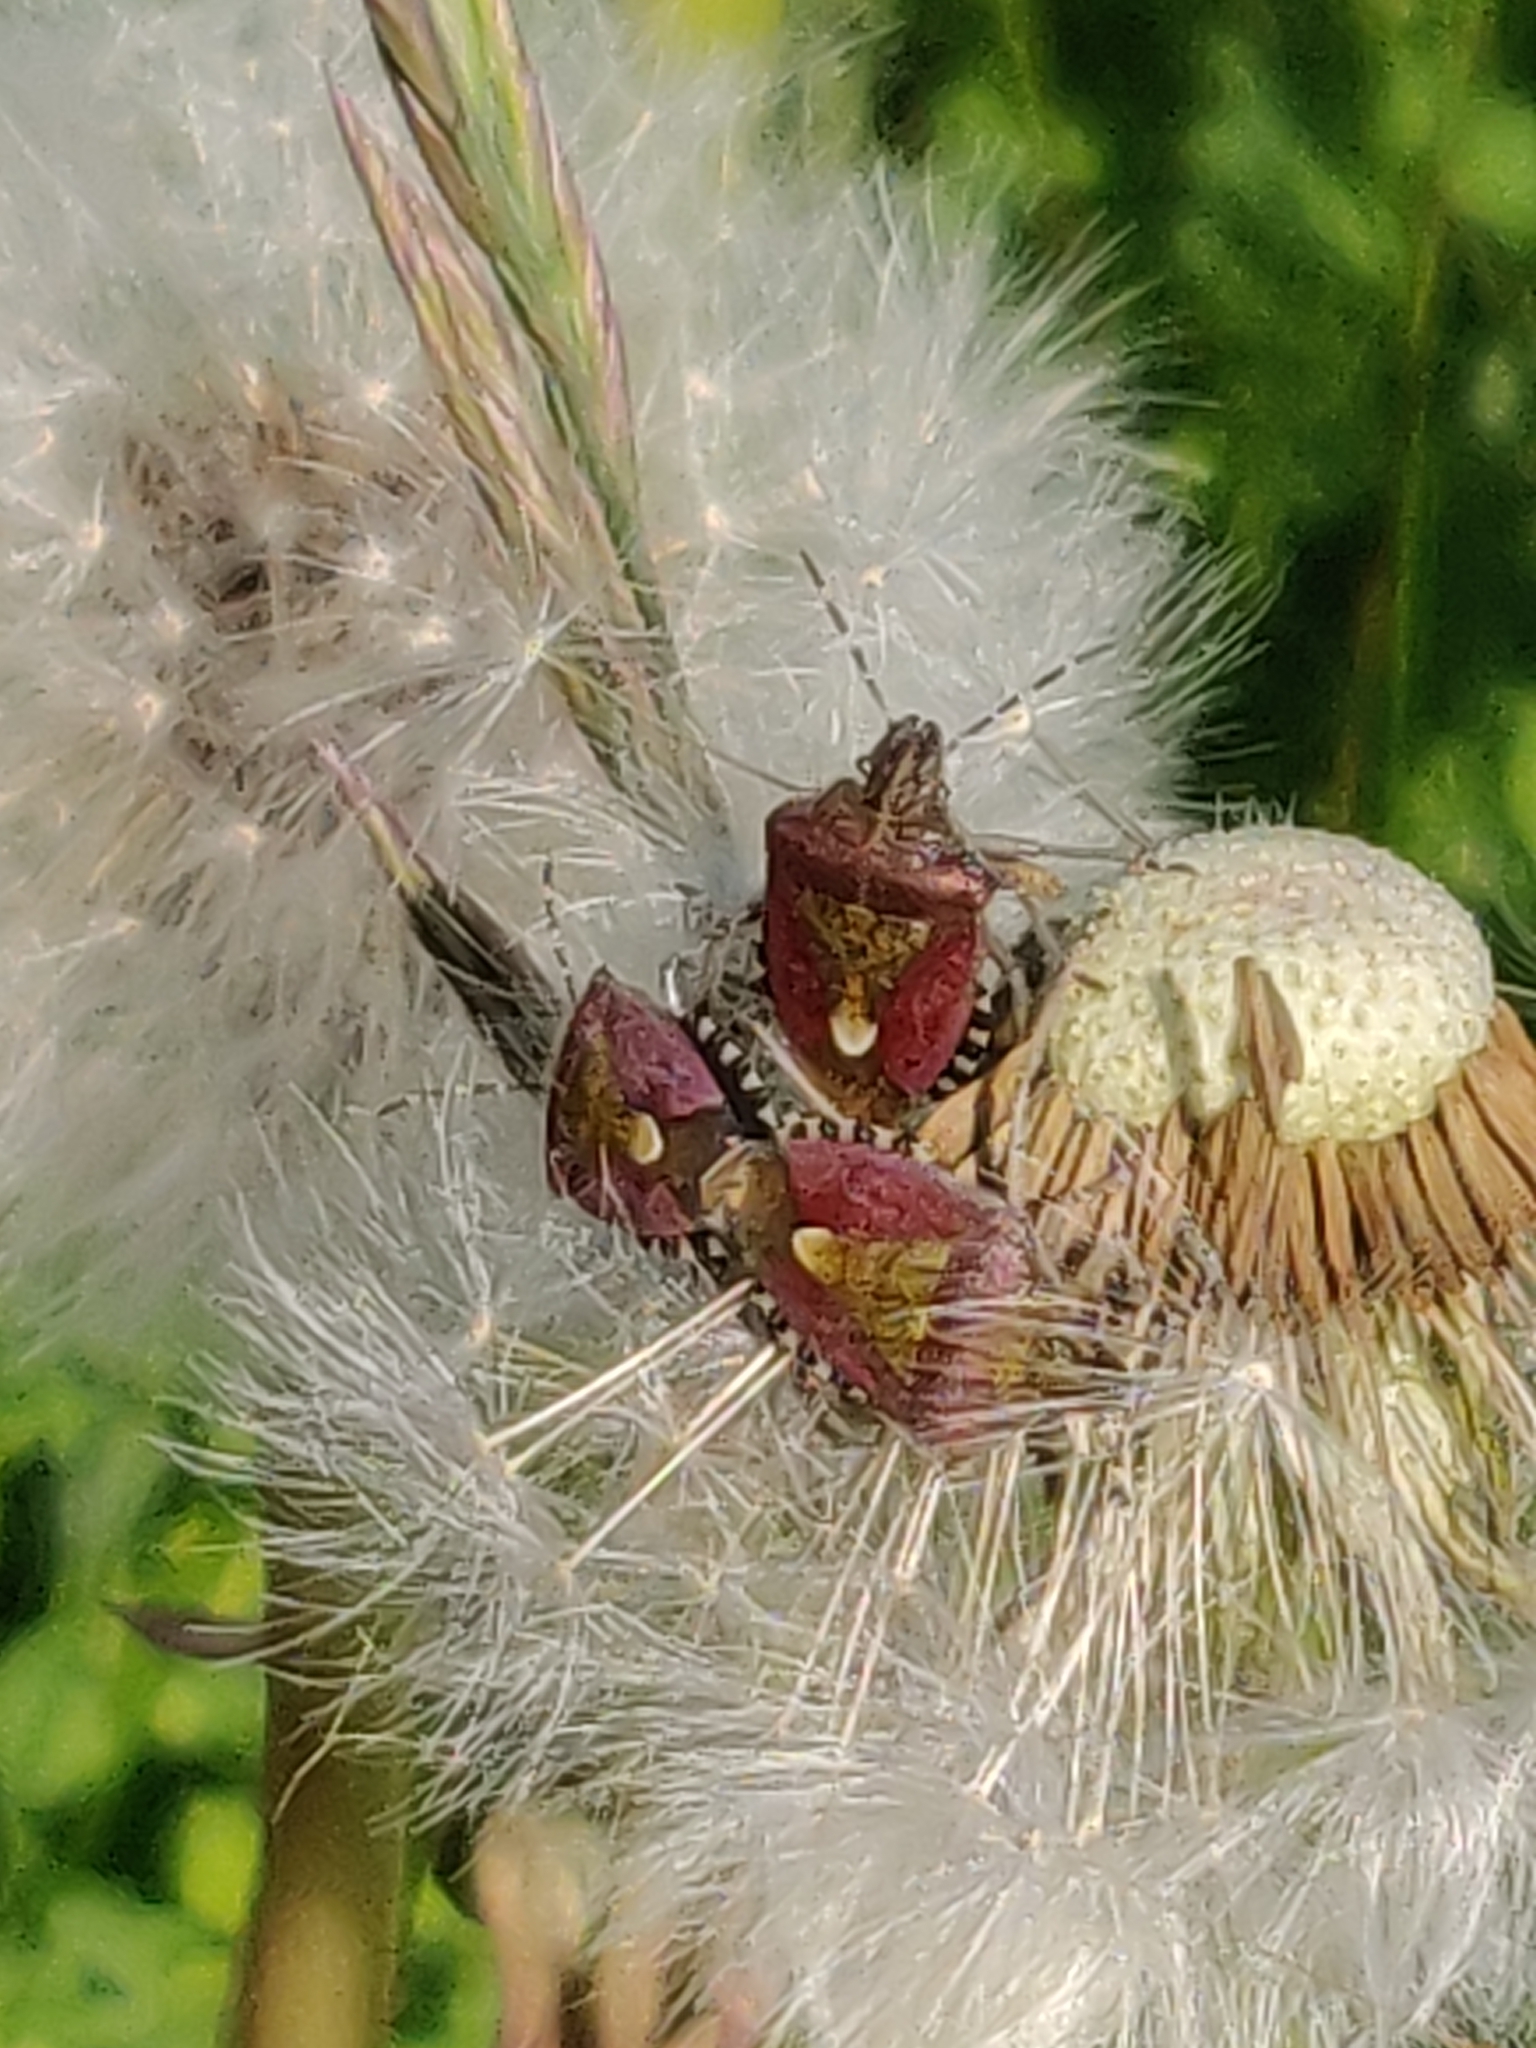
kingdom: Animalia
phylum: Arthropoda
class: Insecta
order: Hemiptera
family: Pentatomidae
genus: Dolycoris
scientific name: Dolycoris baccarum
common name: Sloe bug
